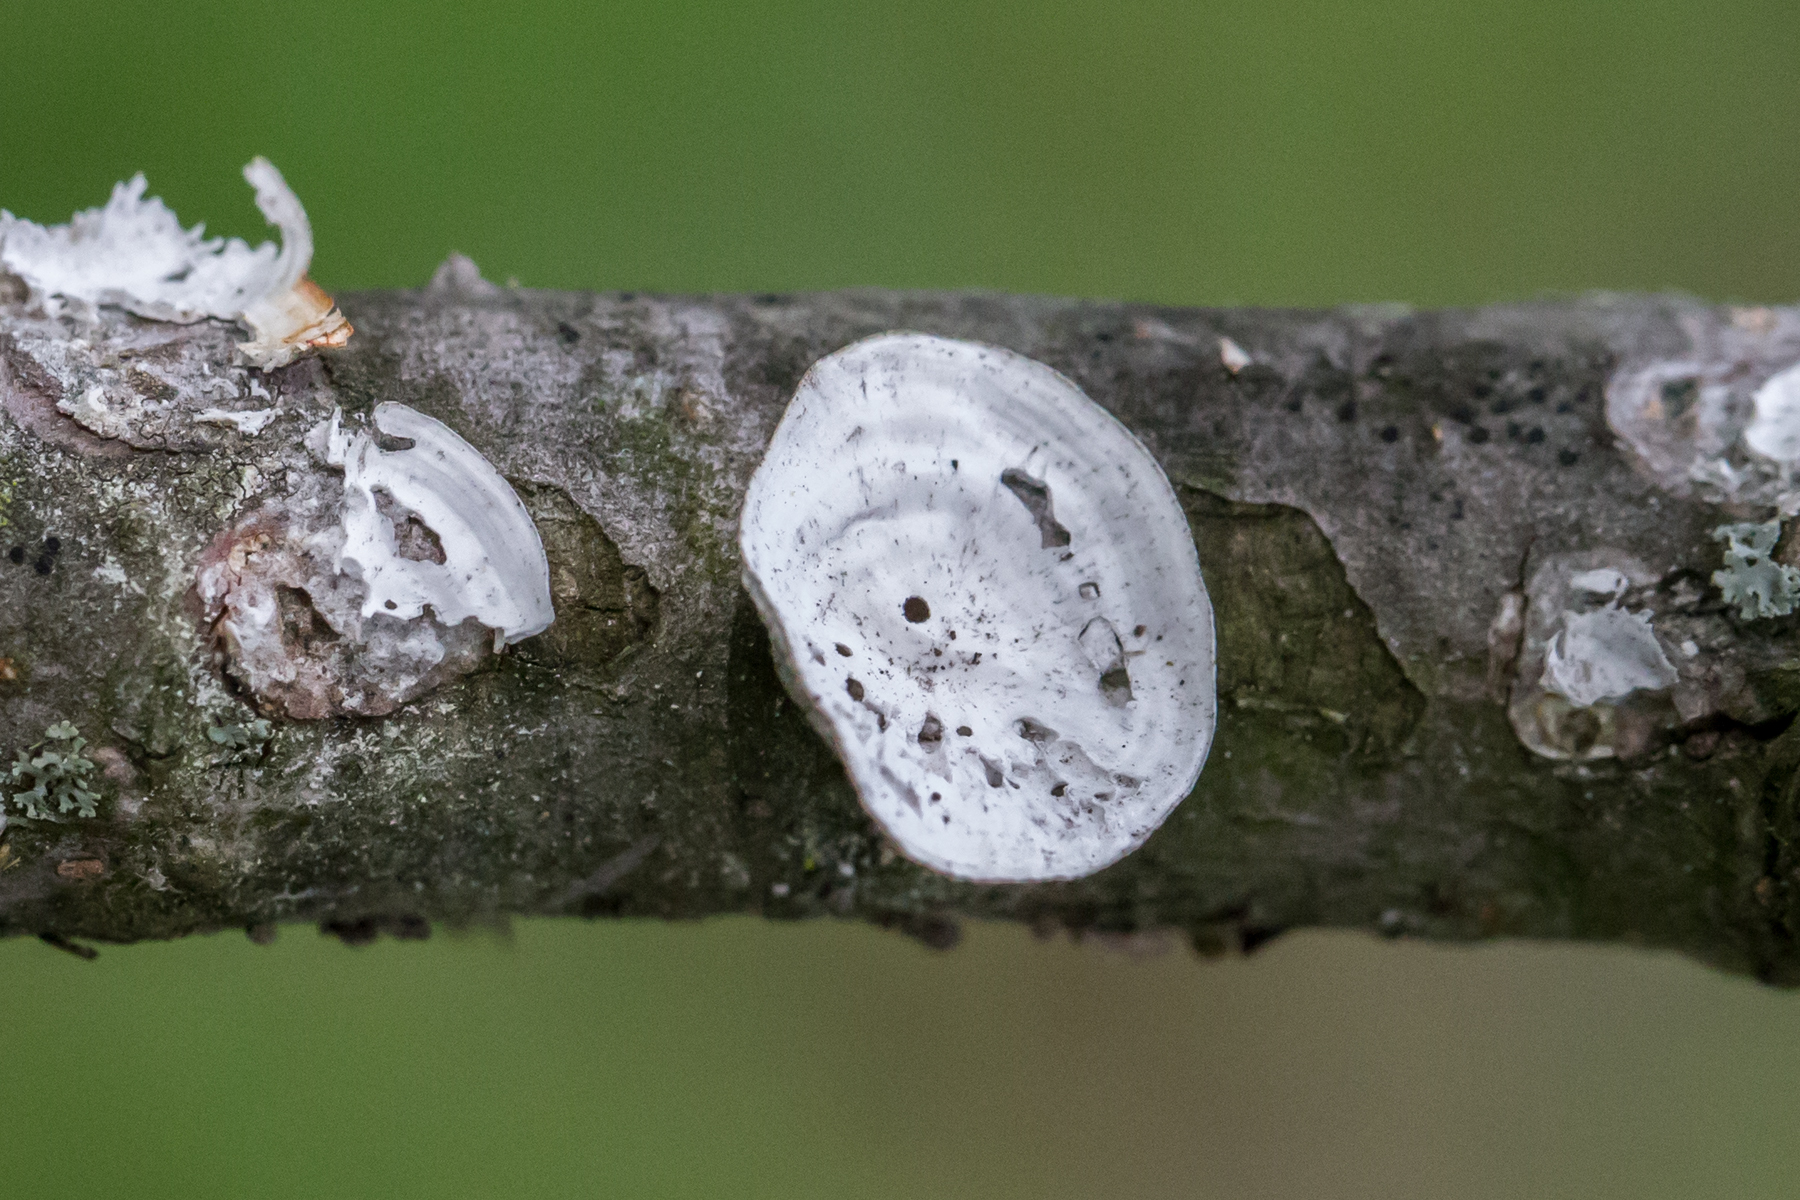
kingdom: Fungi
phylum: Basidiomycota
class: Agaricomycetes
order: Polyporales
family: Polyporaceae
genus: Poronidulus
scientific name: Poronidulus conchifer
